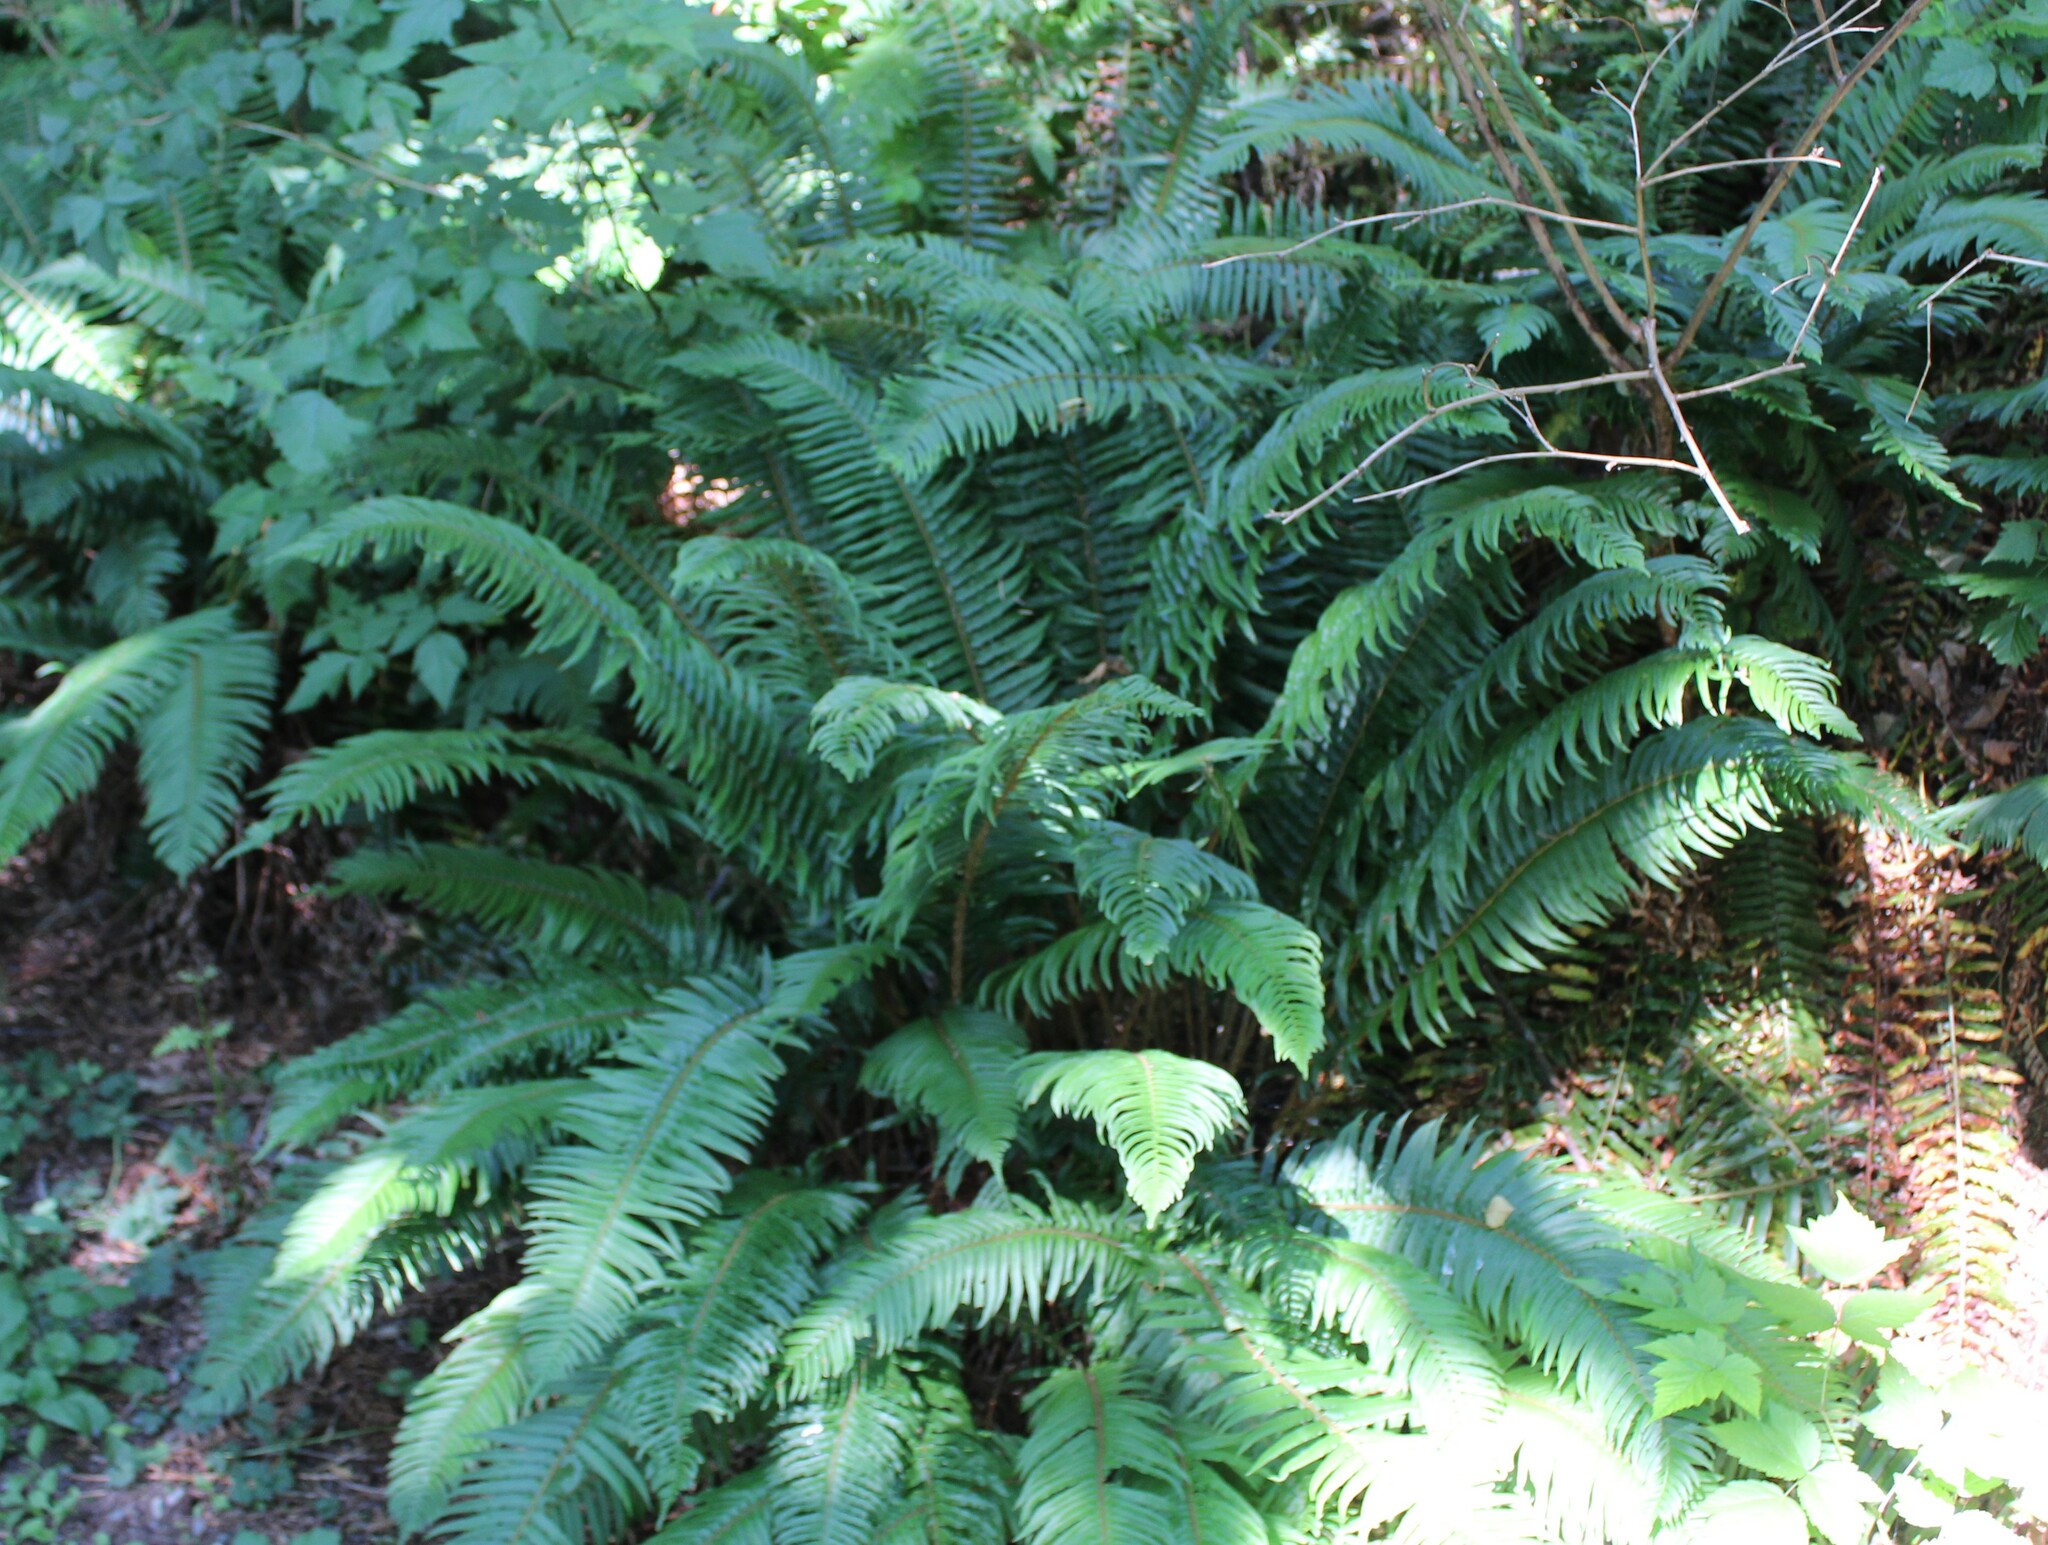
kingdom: Plantae
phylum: Tracheophyta
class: Polypodiopsida
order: Polypodiales
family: Dryopteridaceae
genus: Polystichum
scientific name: Polystichum munitum
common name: Western sword-fern
